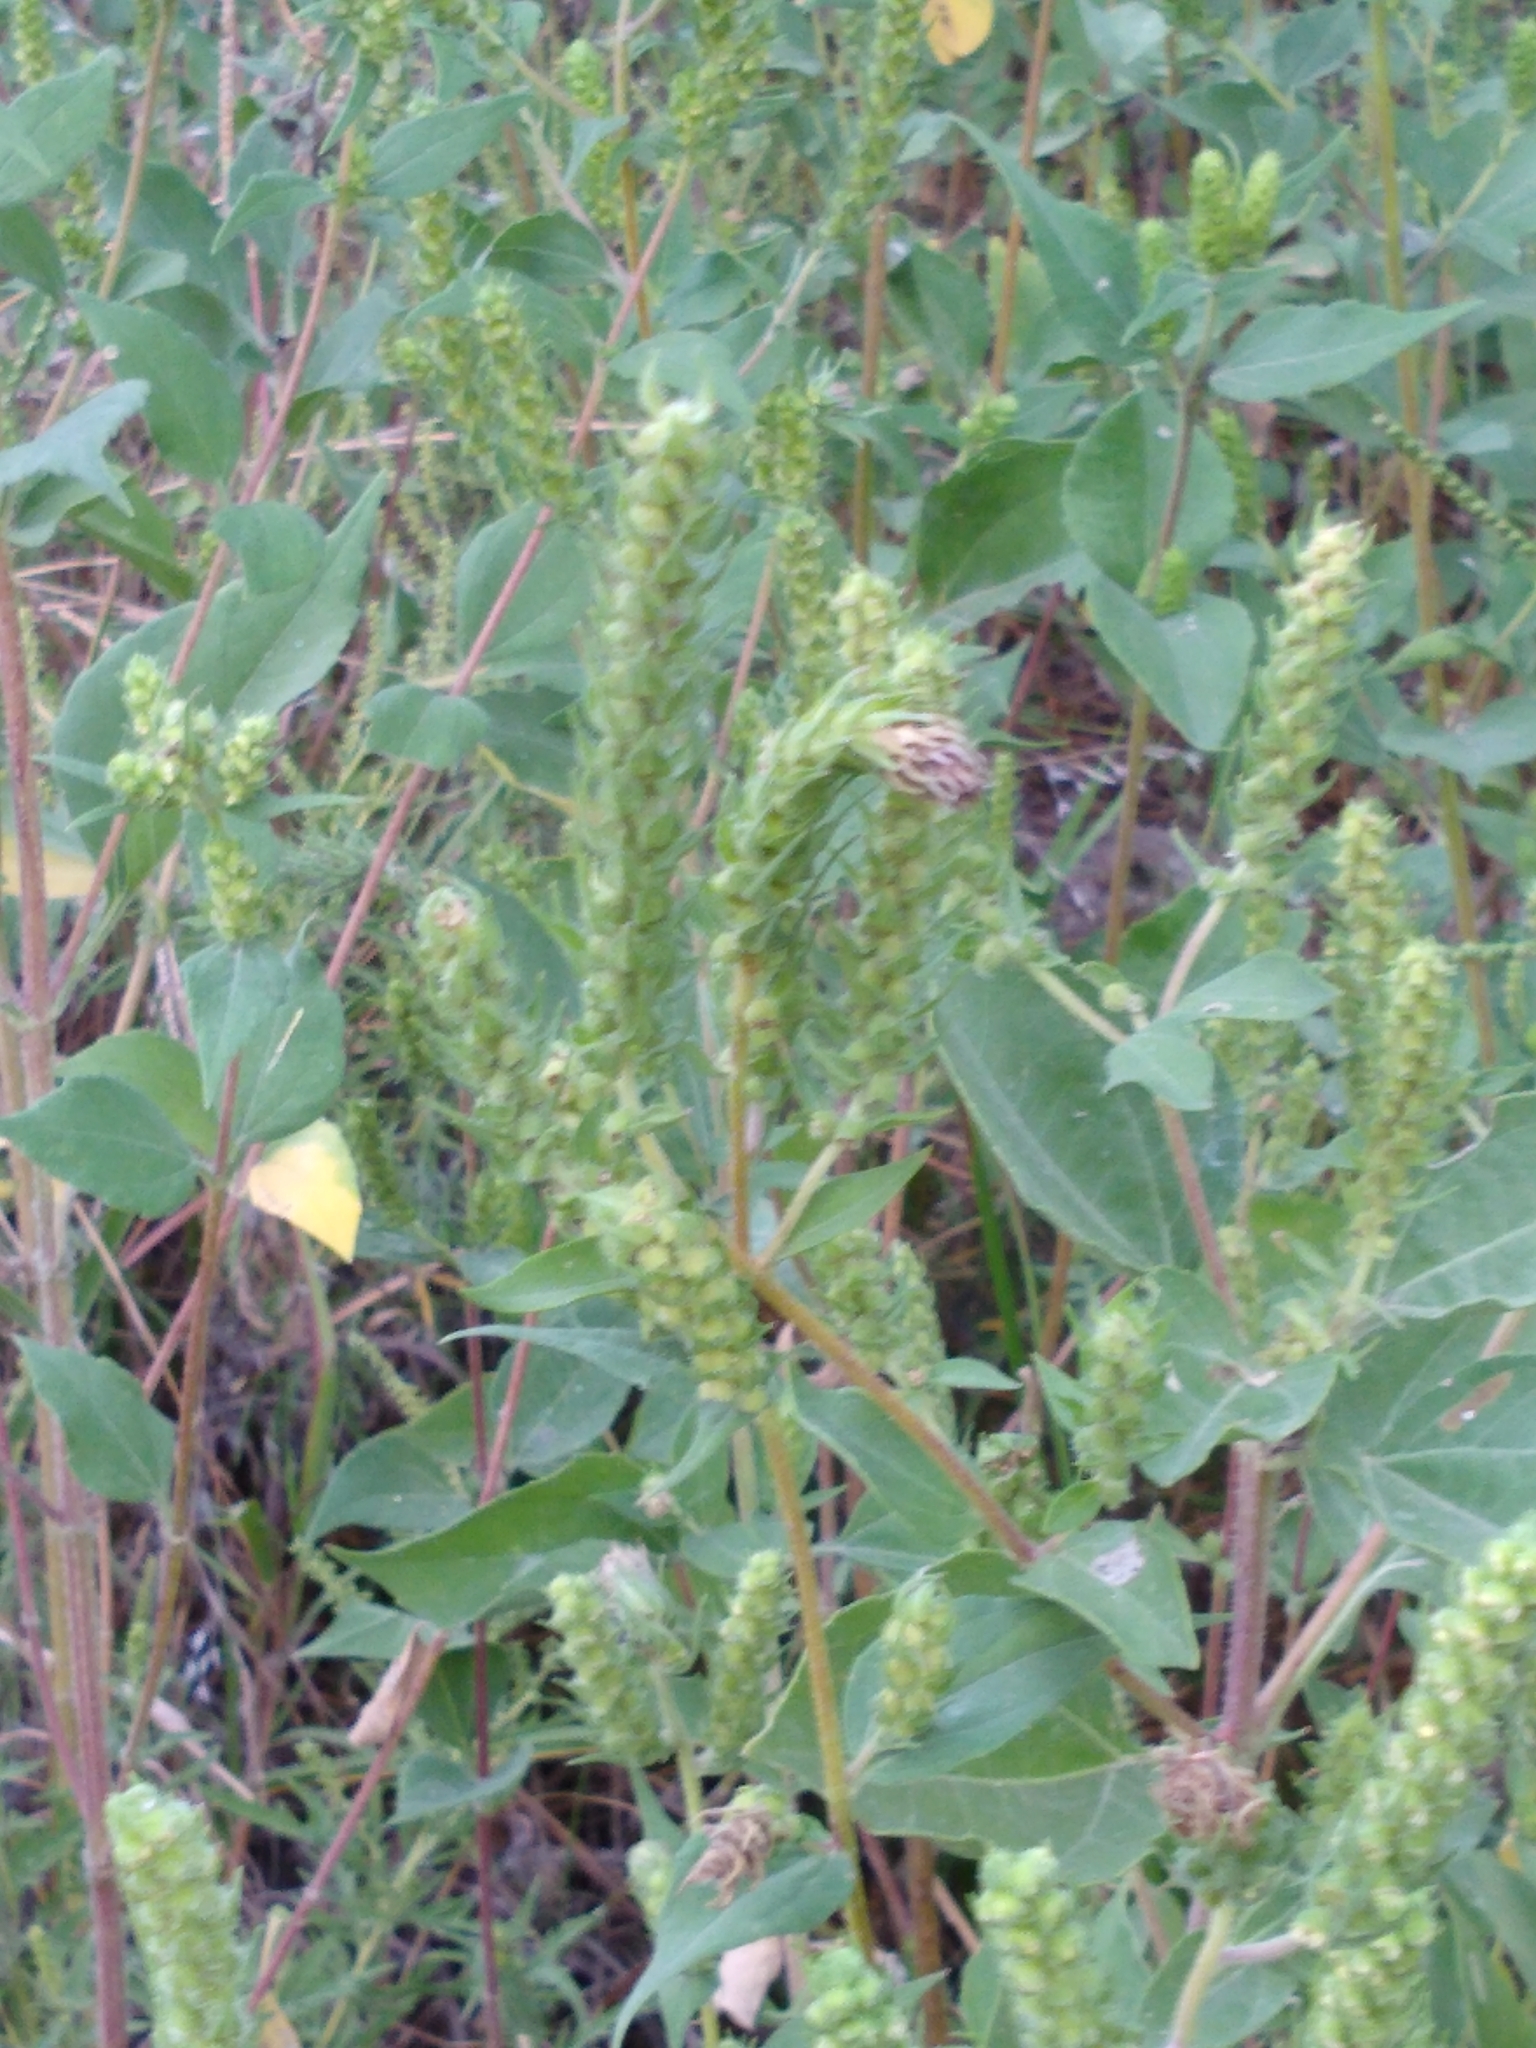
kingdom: Plantae
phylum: Tracheophyta
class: Magnoliopsida
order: Asterales
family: Asteraceae
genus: Iva
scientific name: Iva annua
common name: Marsh-elder
